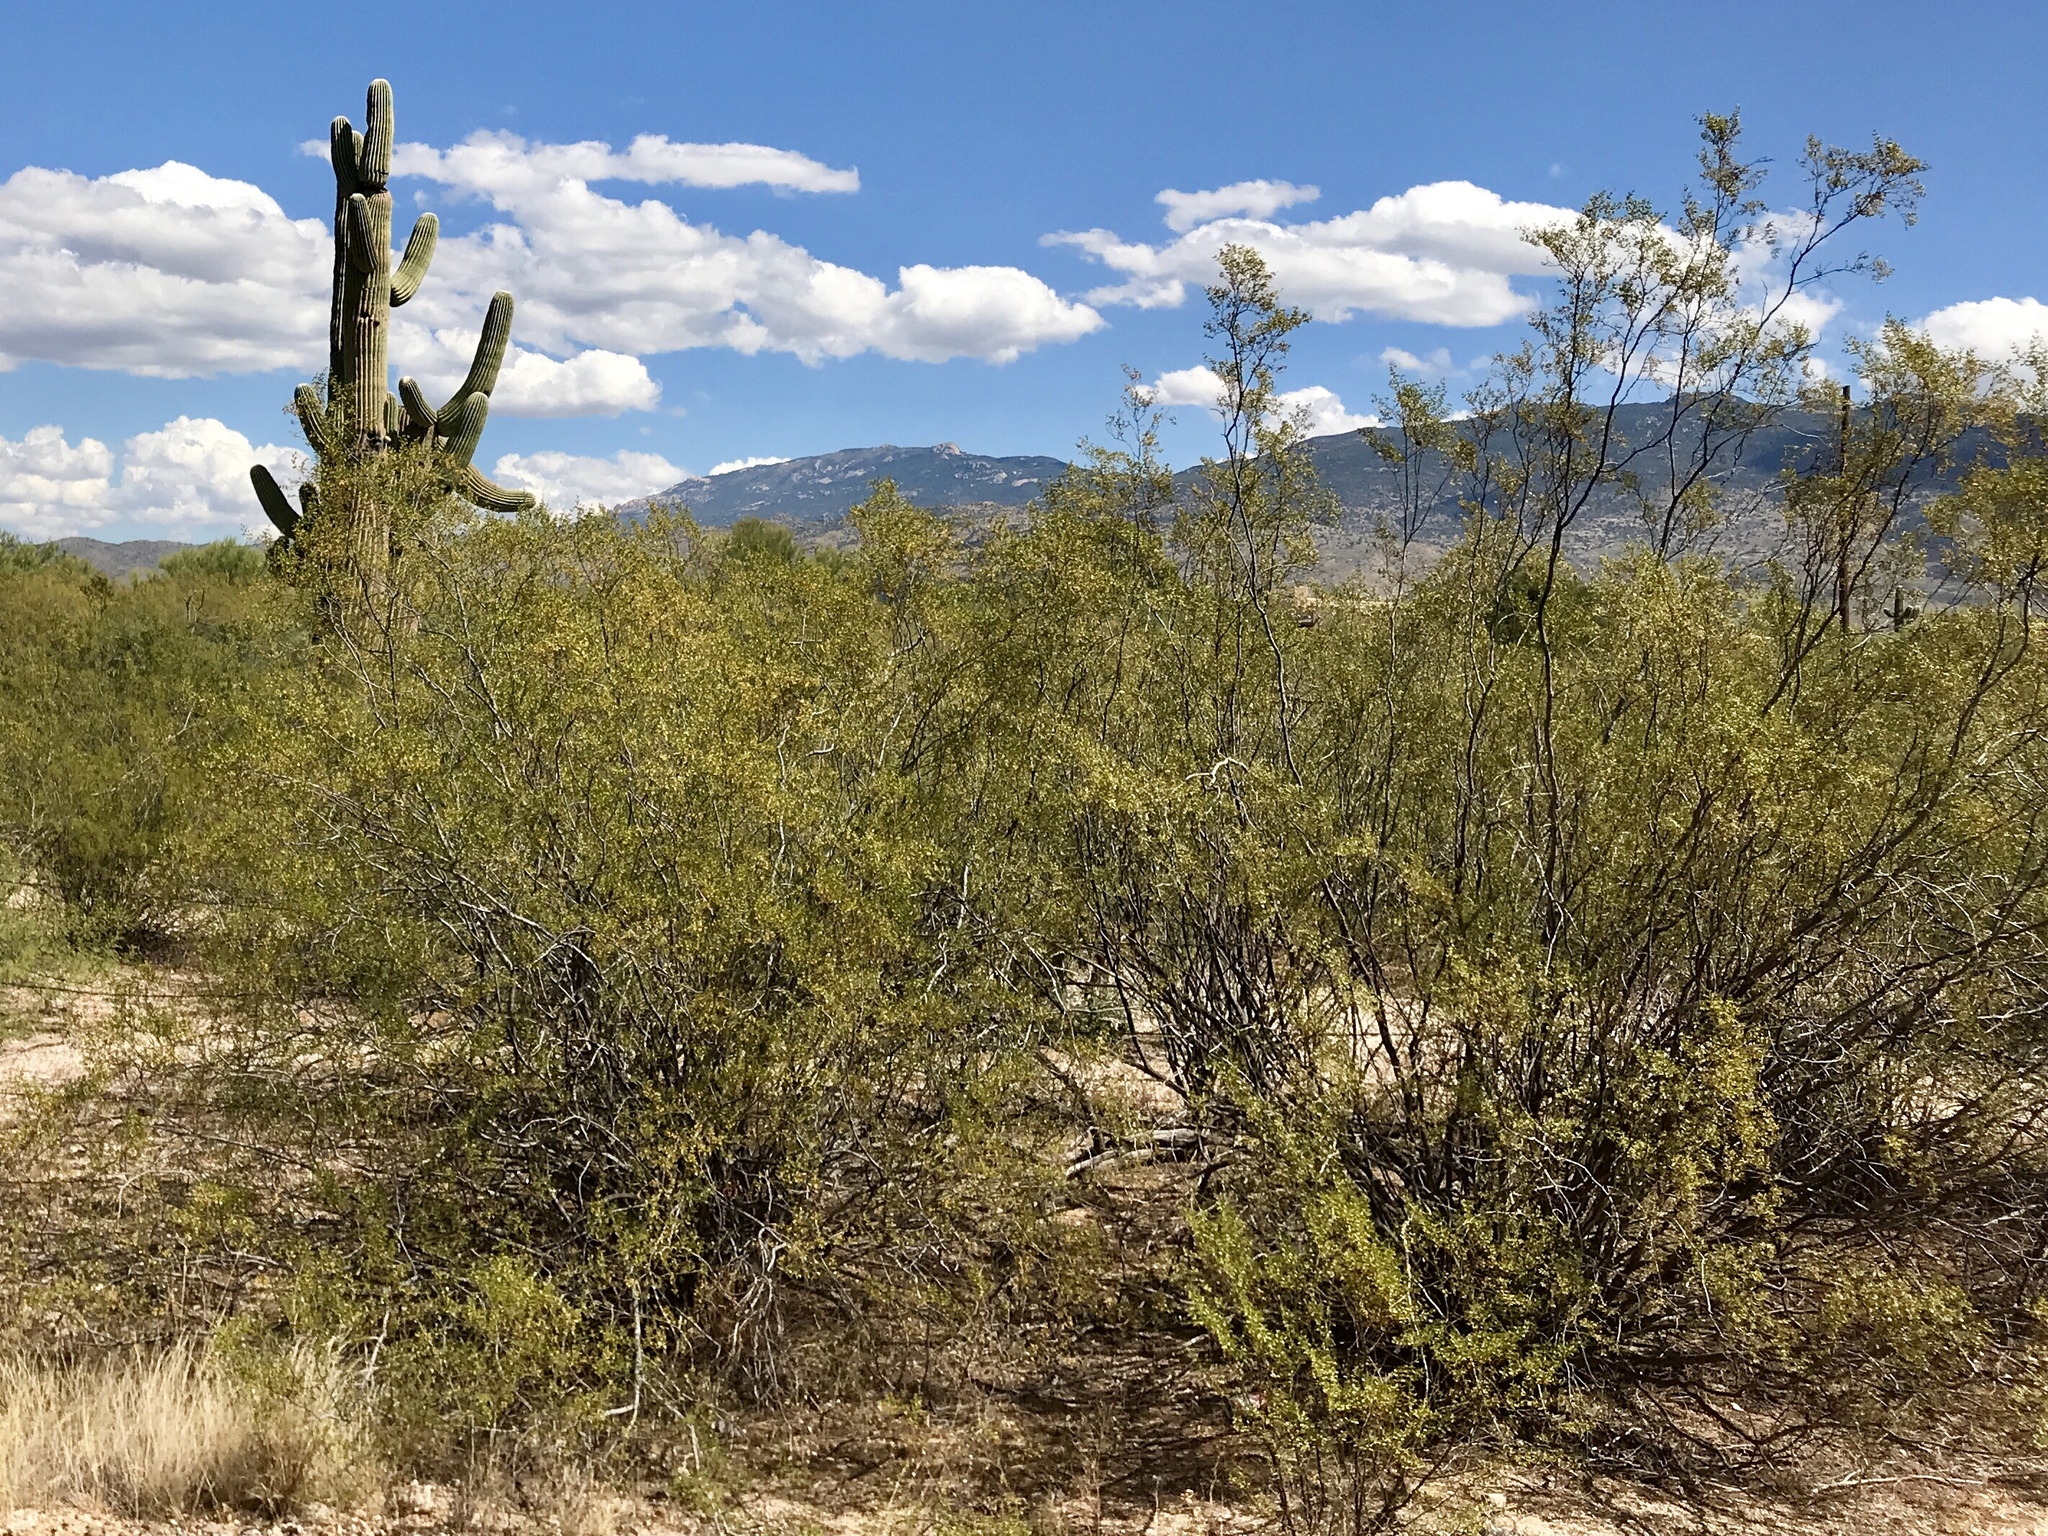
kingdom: Plantae
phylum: Tracheophyta
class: Magnoliopsida
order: Zygophyllales
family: Zygophyllaceae
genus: Larrea
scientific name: Larrea tridentata
